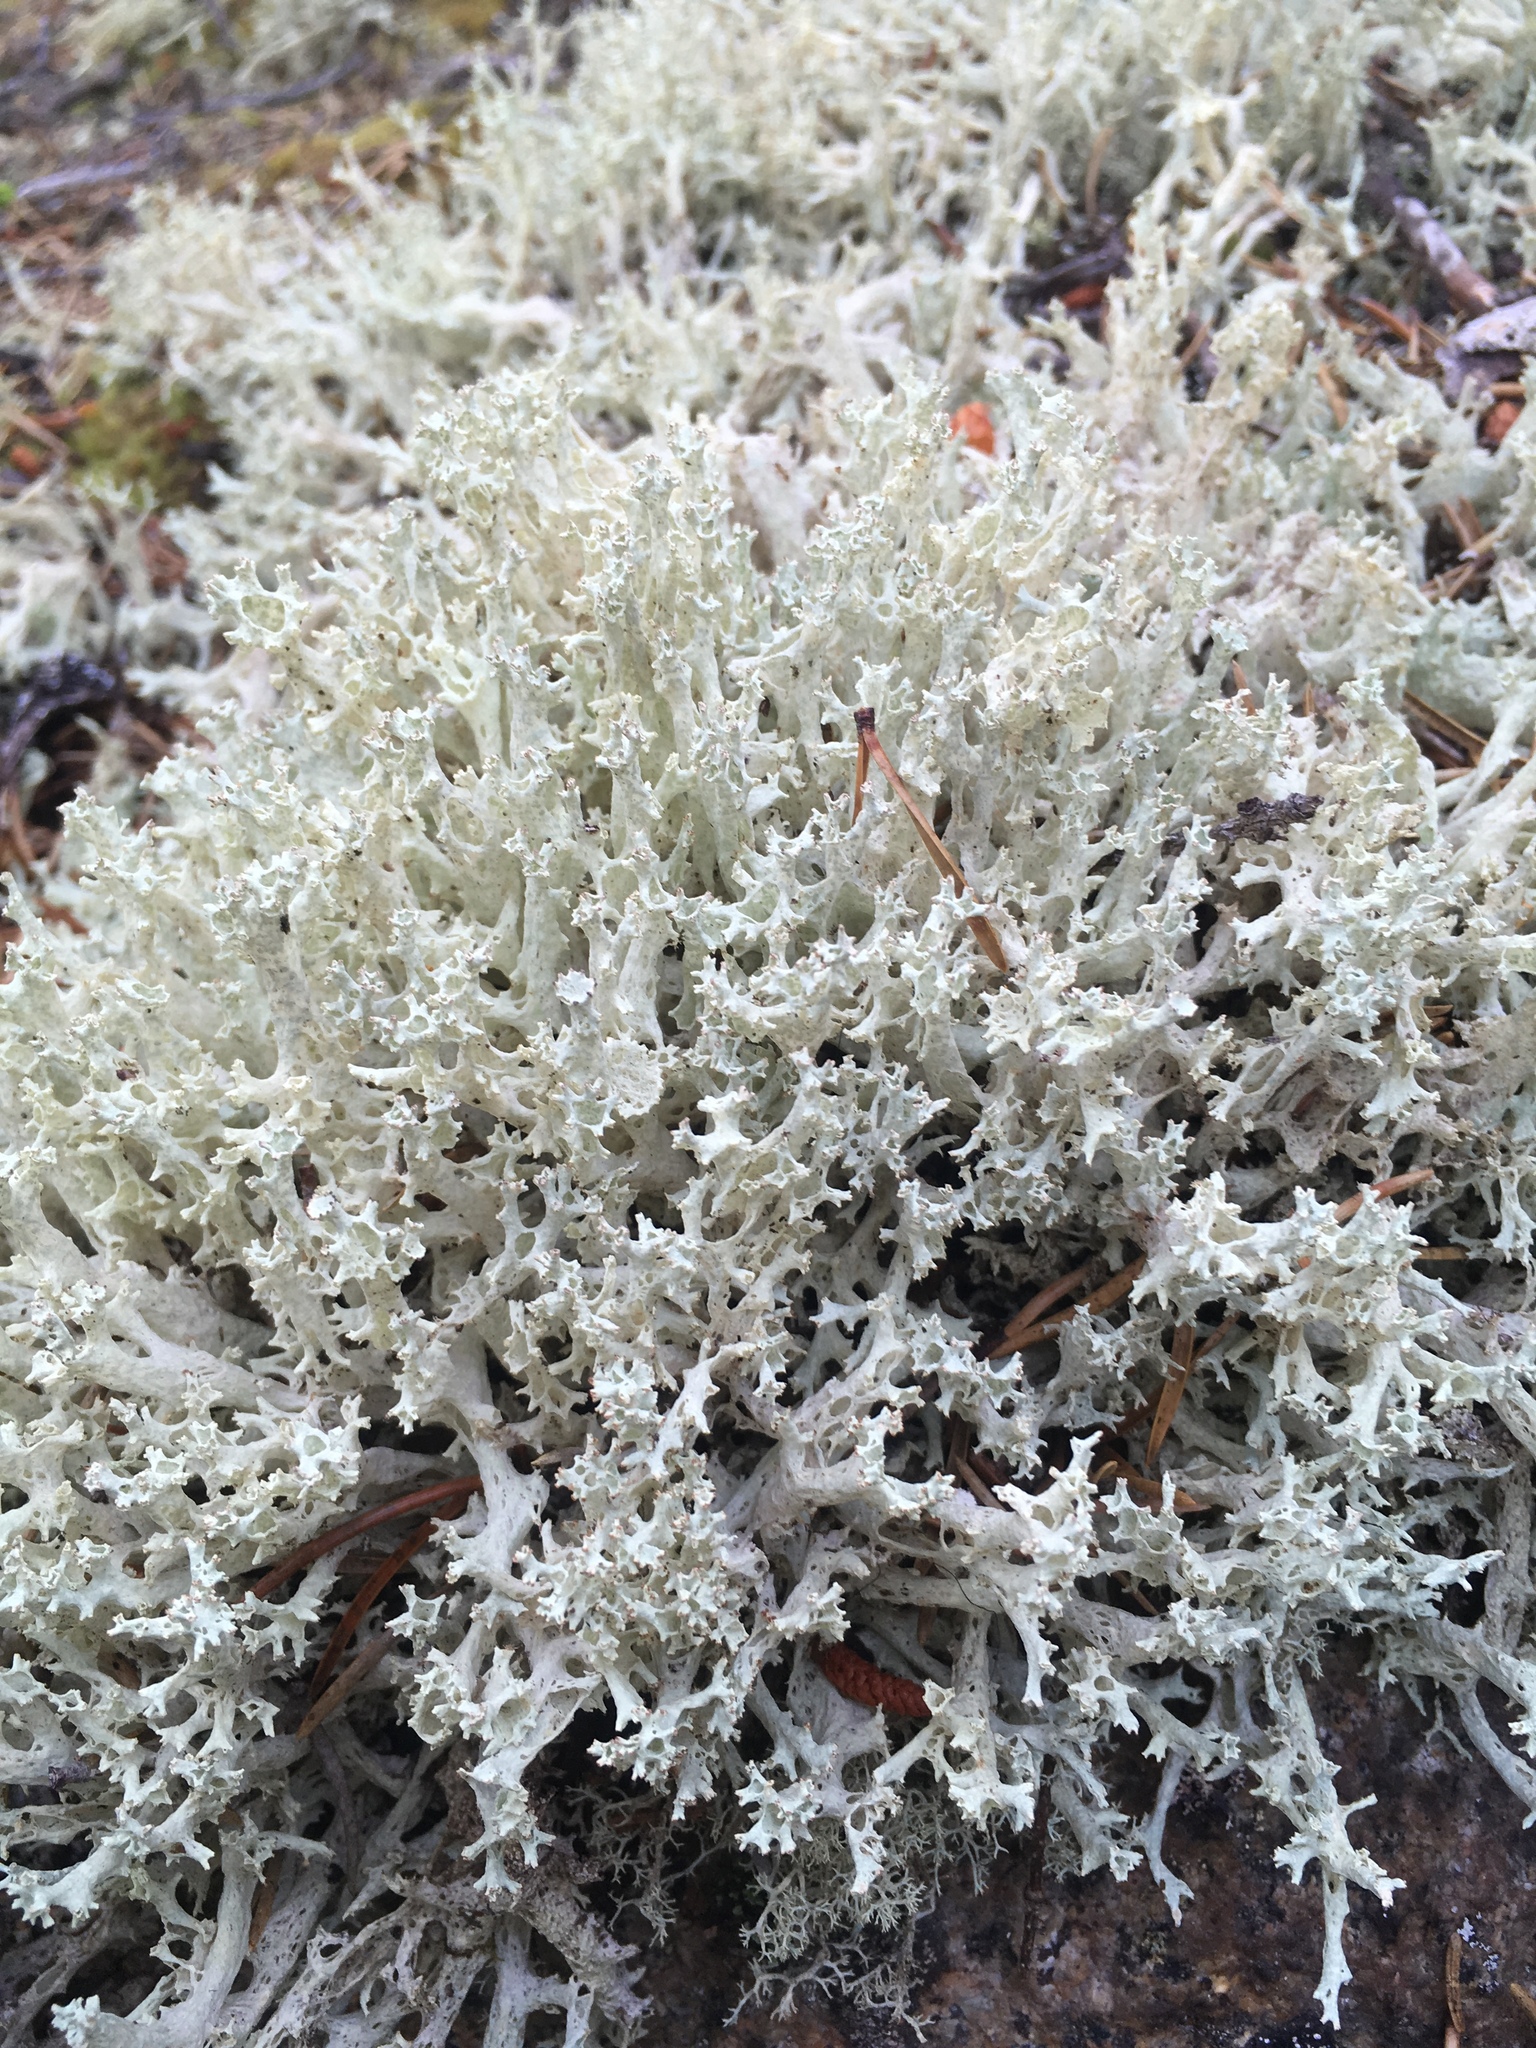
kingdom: Fungi
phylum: Ascomycota
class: Lecanoromycetes
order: Lecanorales
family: Cladoniaceae
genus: Cladonia
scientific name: Cladonia boryi
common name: Fishnet cladonia
